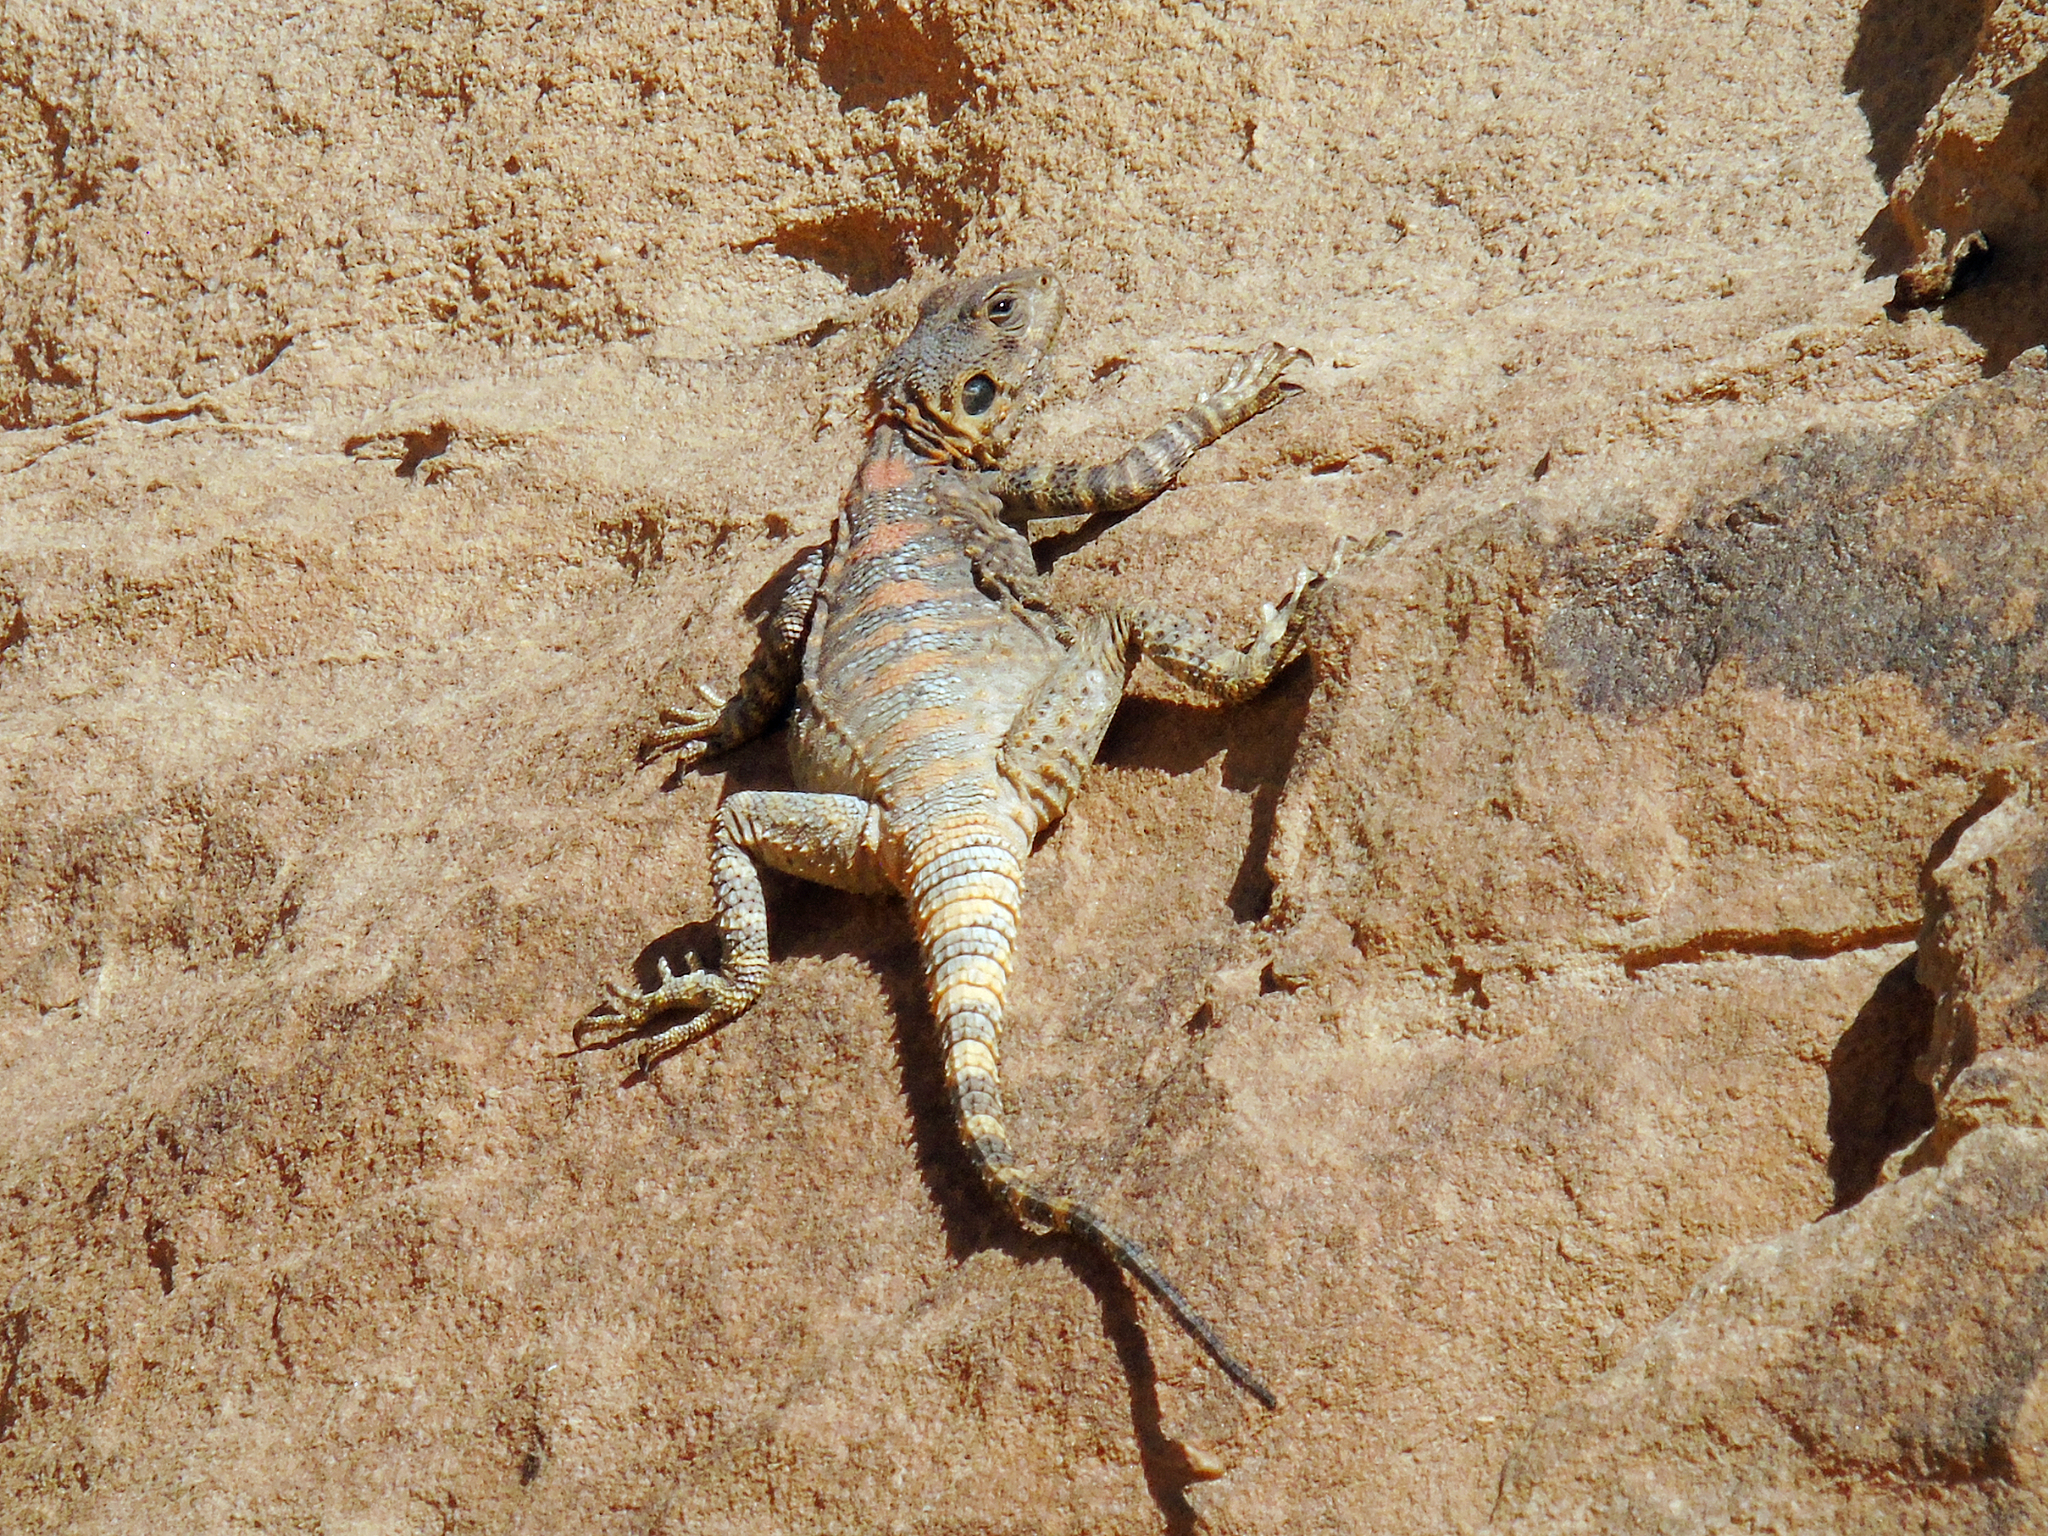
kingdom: Animalia
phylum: Chordata
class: Squamata
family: Agamidae
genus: Laudakia
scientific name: Laudakia vulgaris
